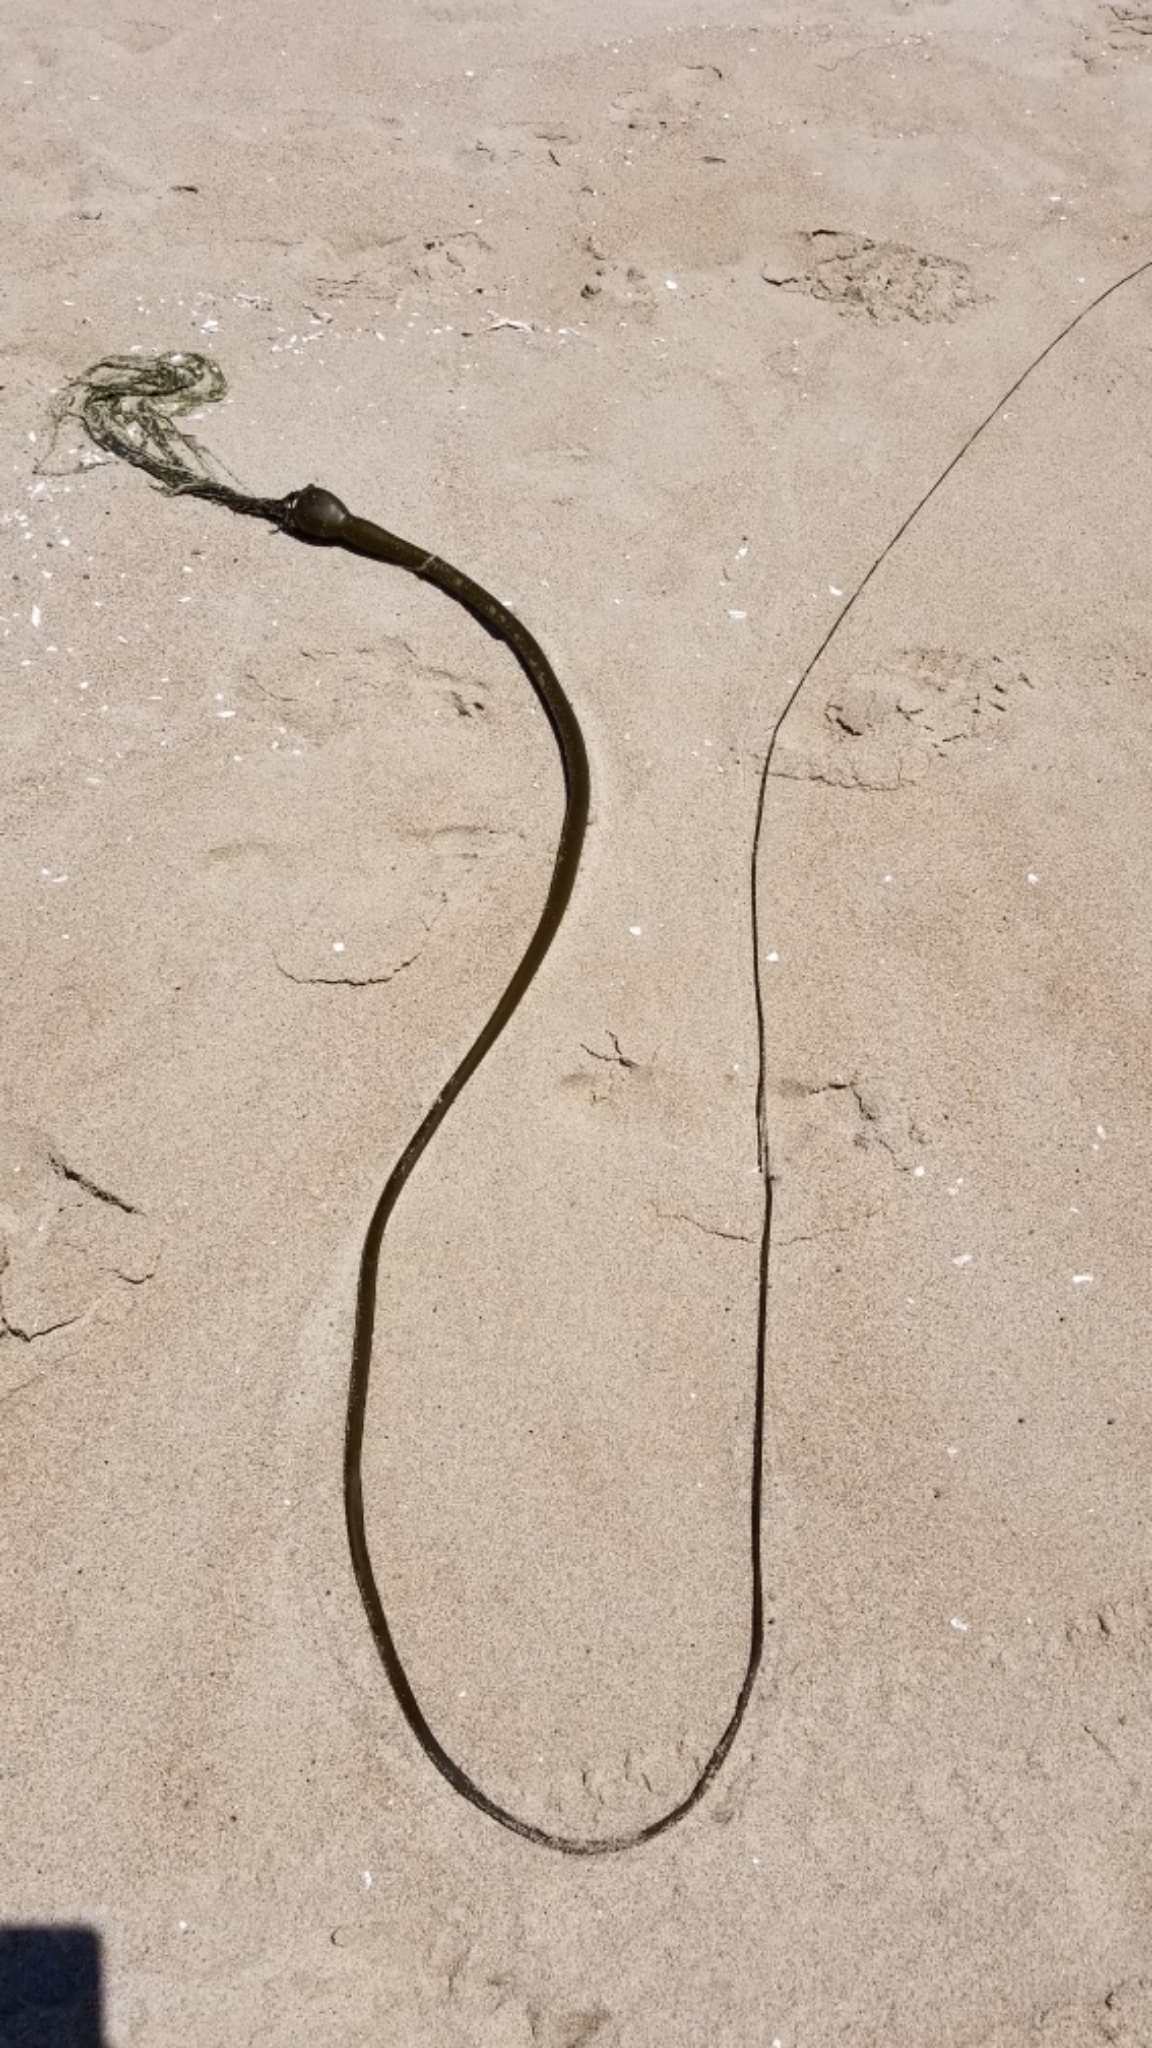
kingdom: Chromista
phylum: Ochrophyta
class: Phaeophyceae
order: Laminariales
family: Laminariaceae
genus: Nereocystis
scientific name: Nereocystis luetkeana
